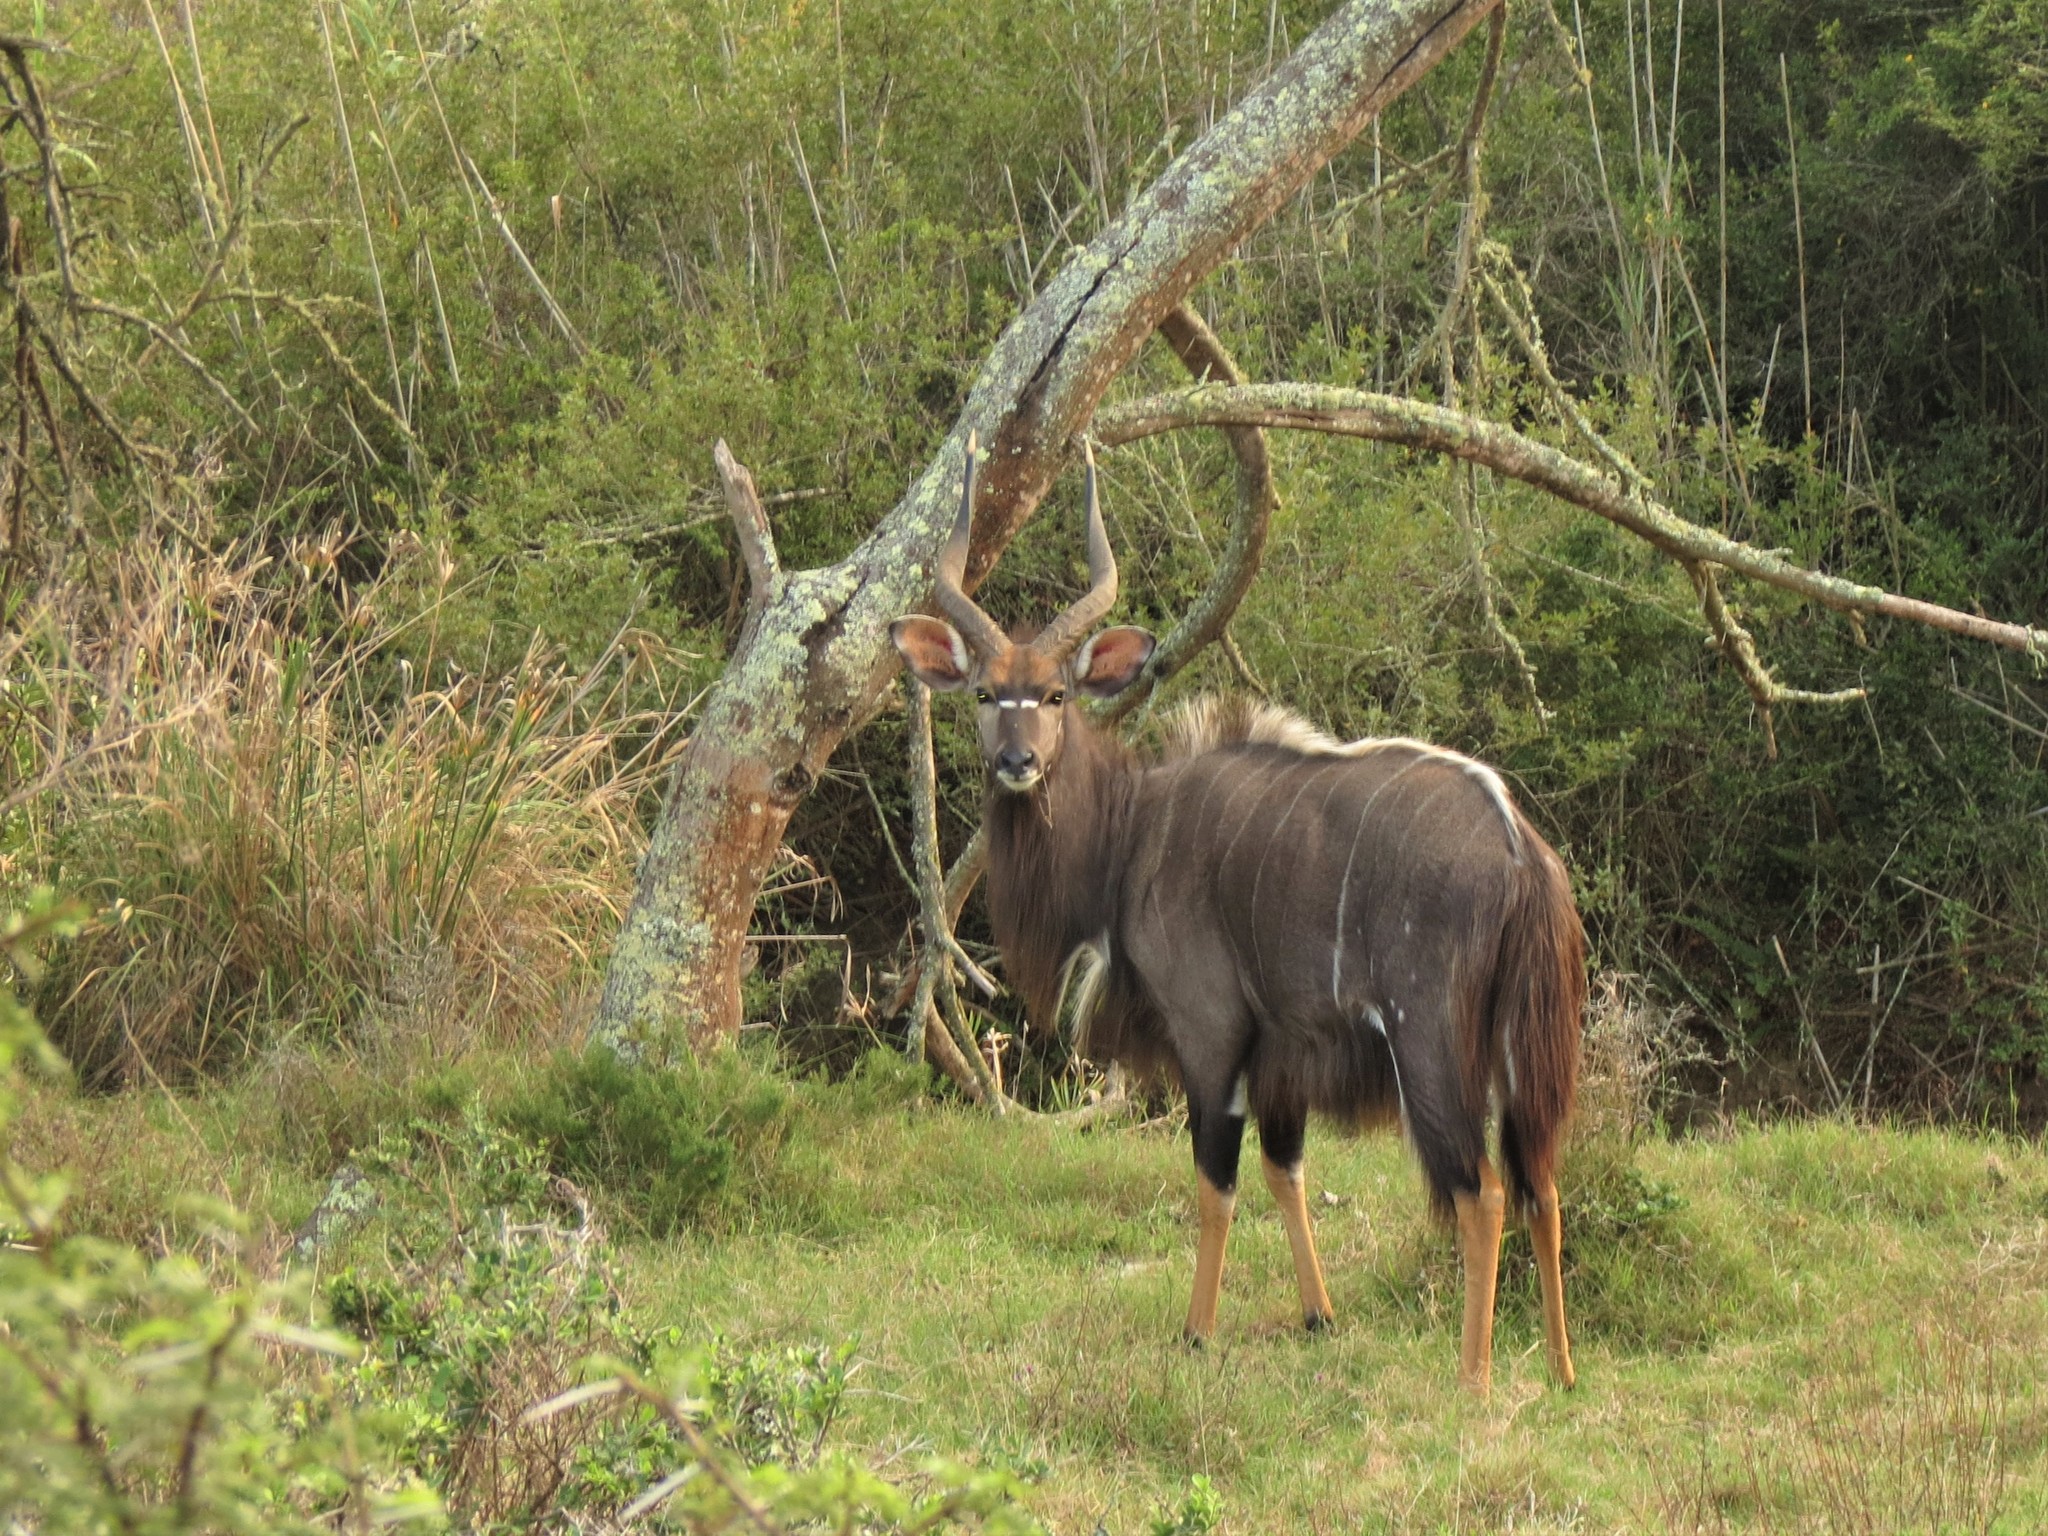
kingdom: Animalia
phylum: Chordata
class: Mammalia
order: Artiodactyla
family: Bovidae
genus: Tragelaphus
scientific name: Tragelaphus angasii
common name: Nyala
